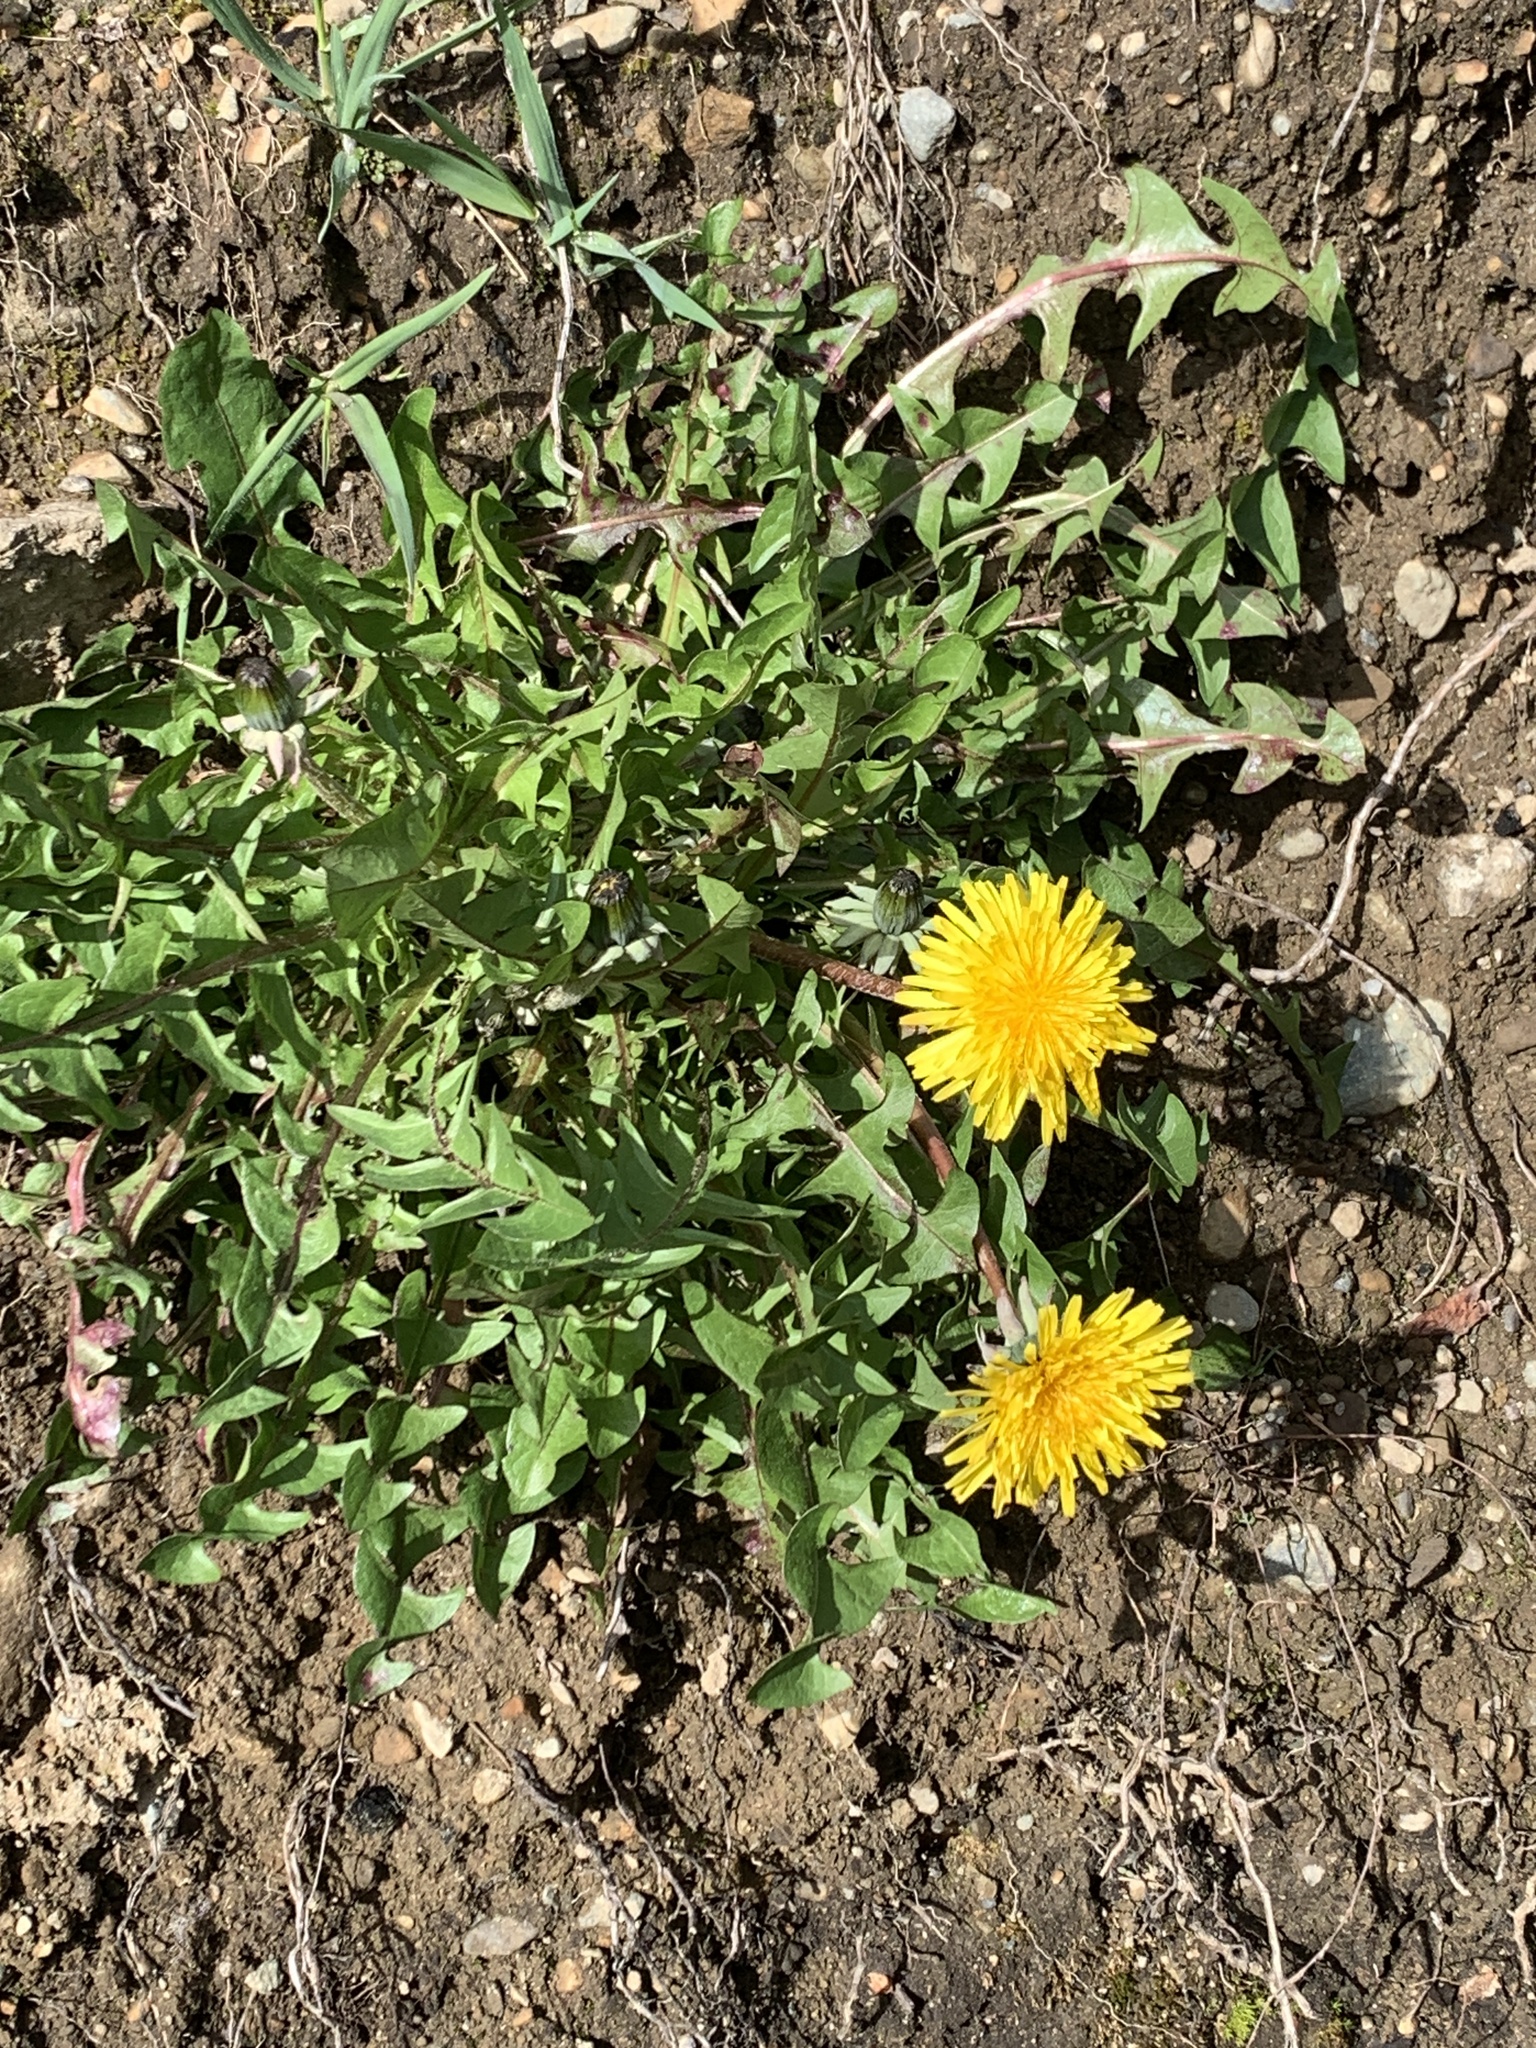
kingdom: Plantae
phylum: Tracheophyta
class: Magnoliopsida
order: Asterales
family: Asteraceae
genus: Taraxacum
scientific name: Taraxacum officinale
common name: Common dandelion
